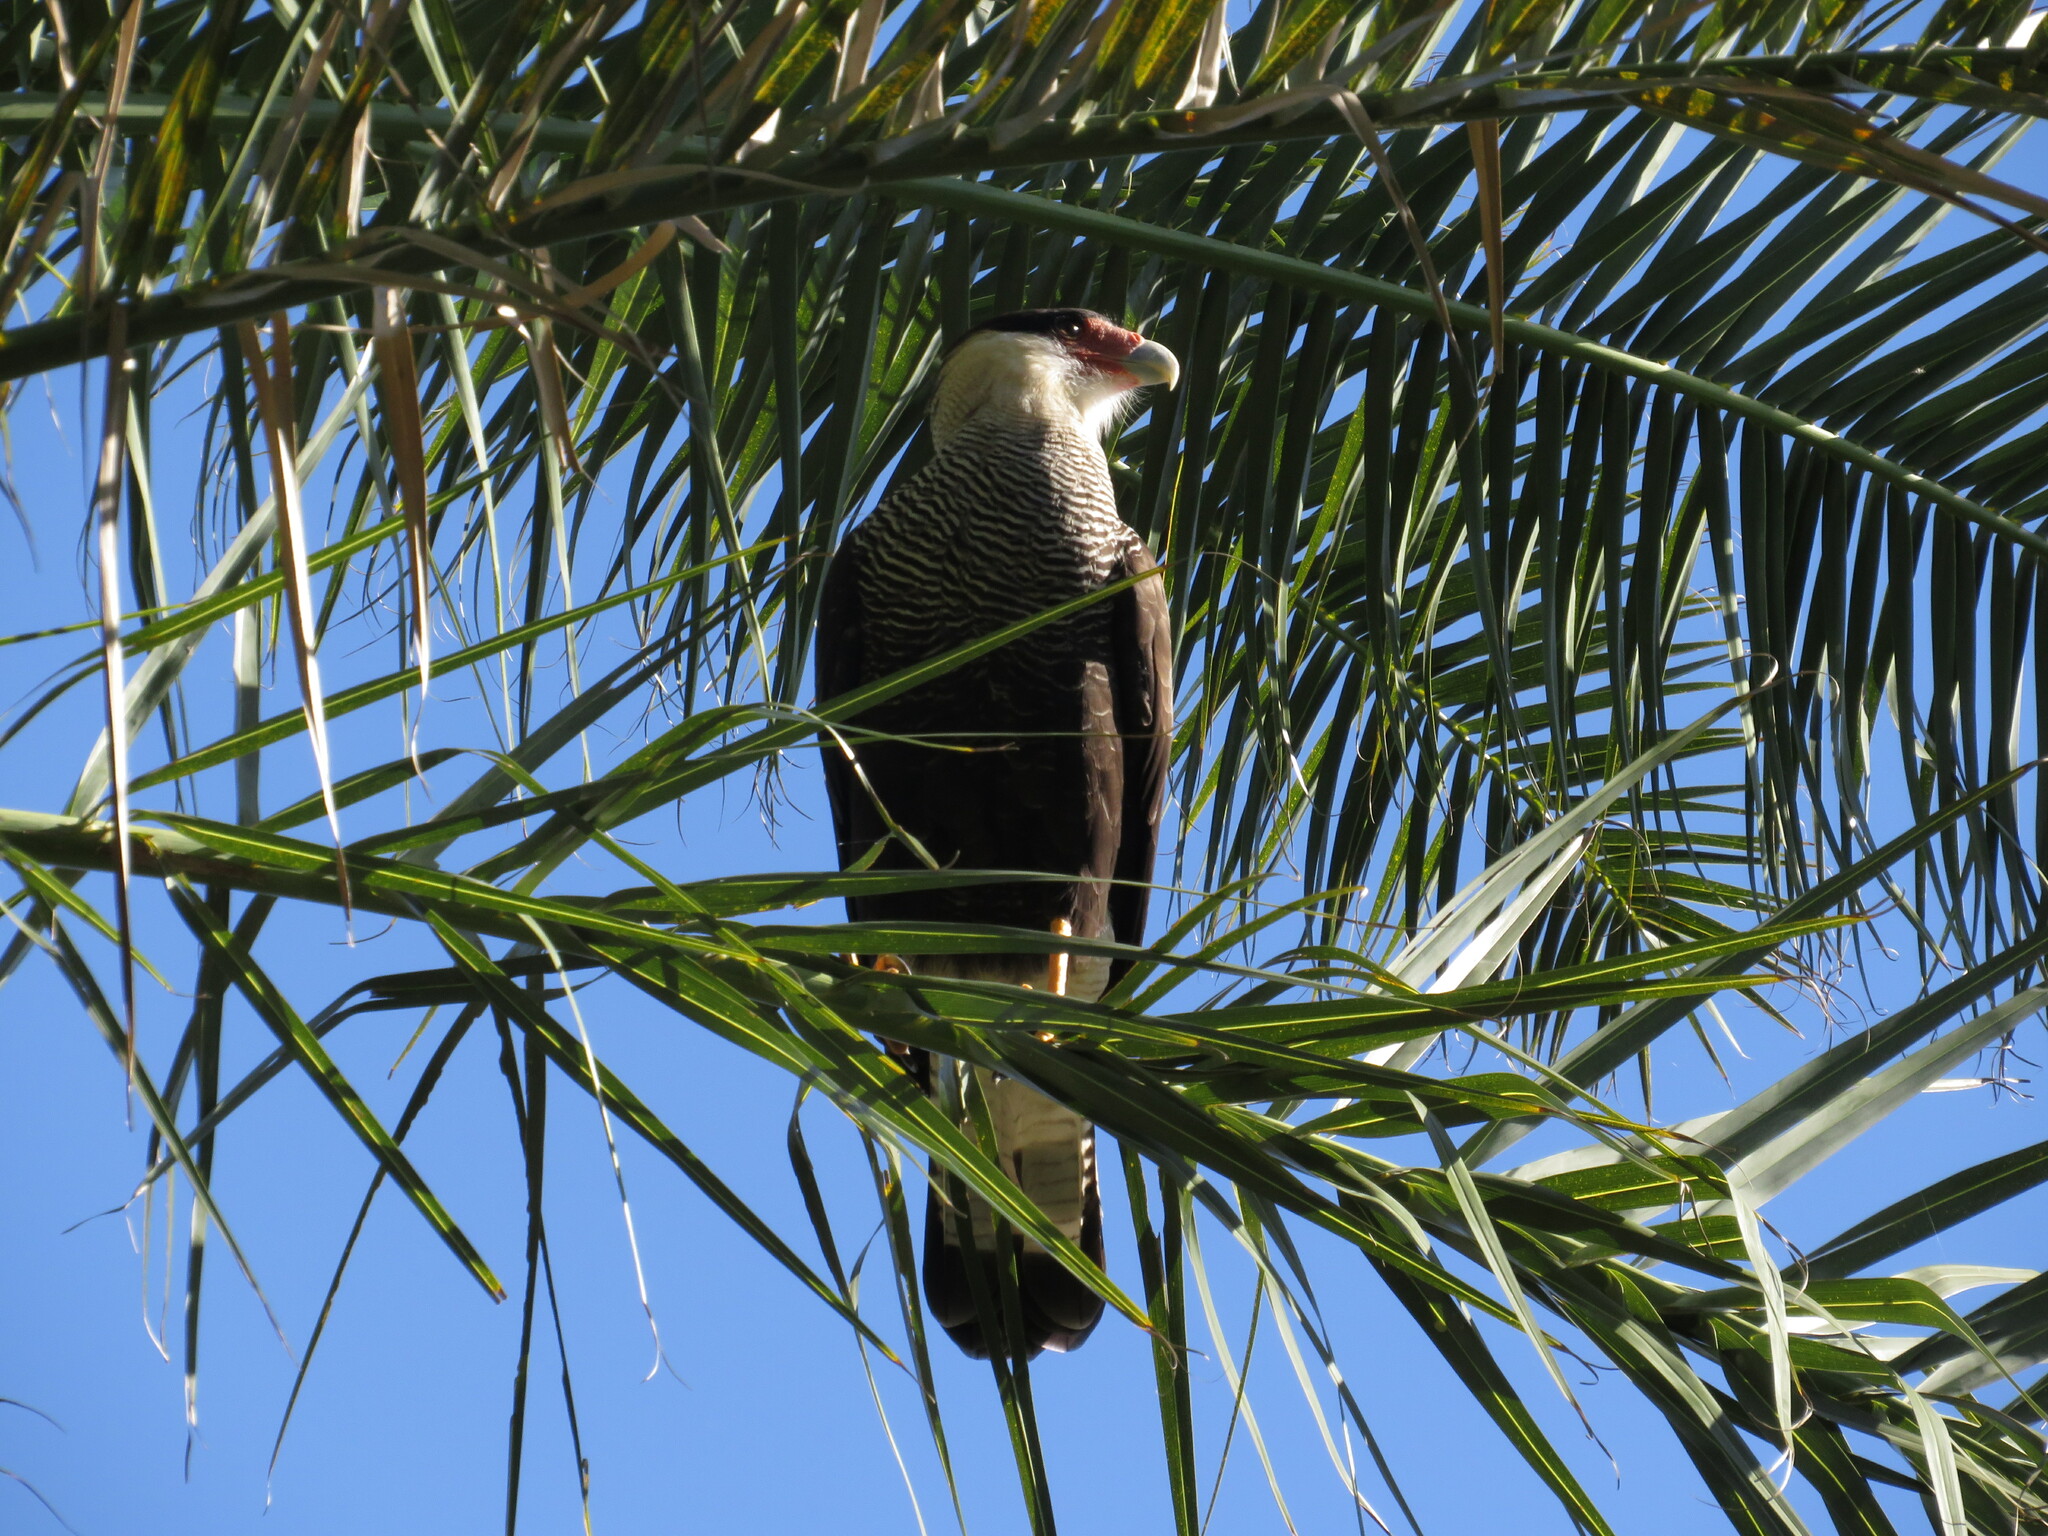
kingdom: Animalia
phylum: Chordata
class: Aves
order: Falconiformes
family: Falconidae
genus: Caracara
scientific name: Caracara plancus
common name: Southern caracara
